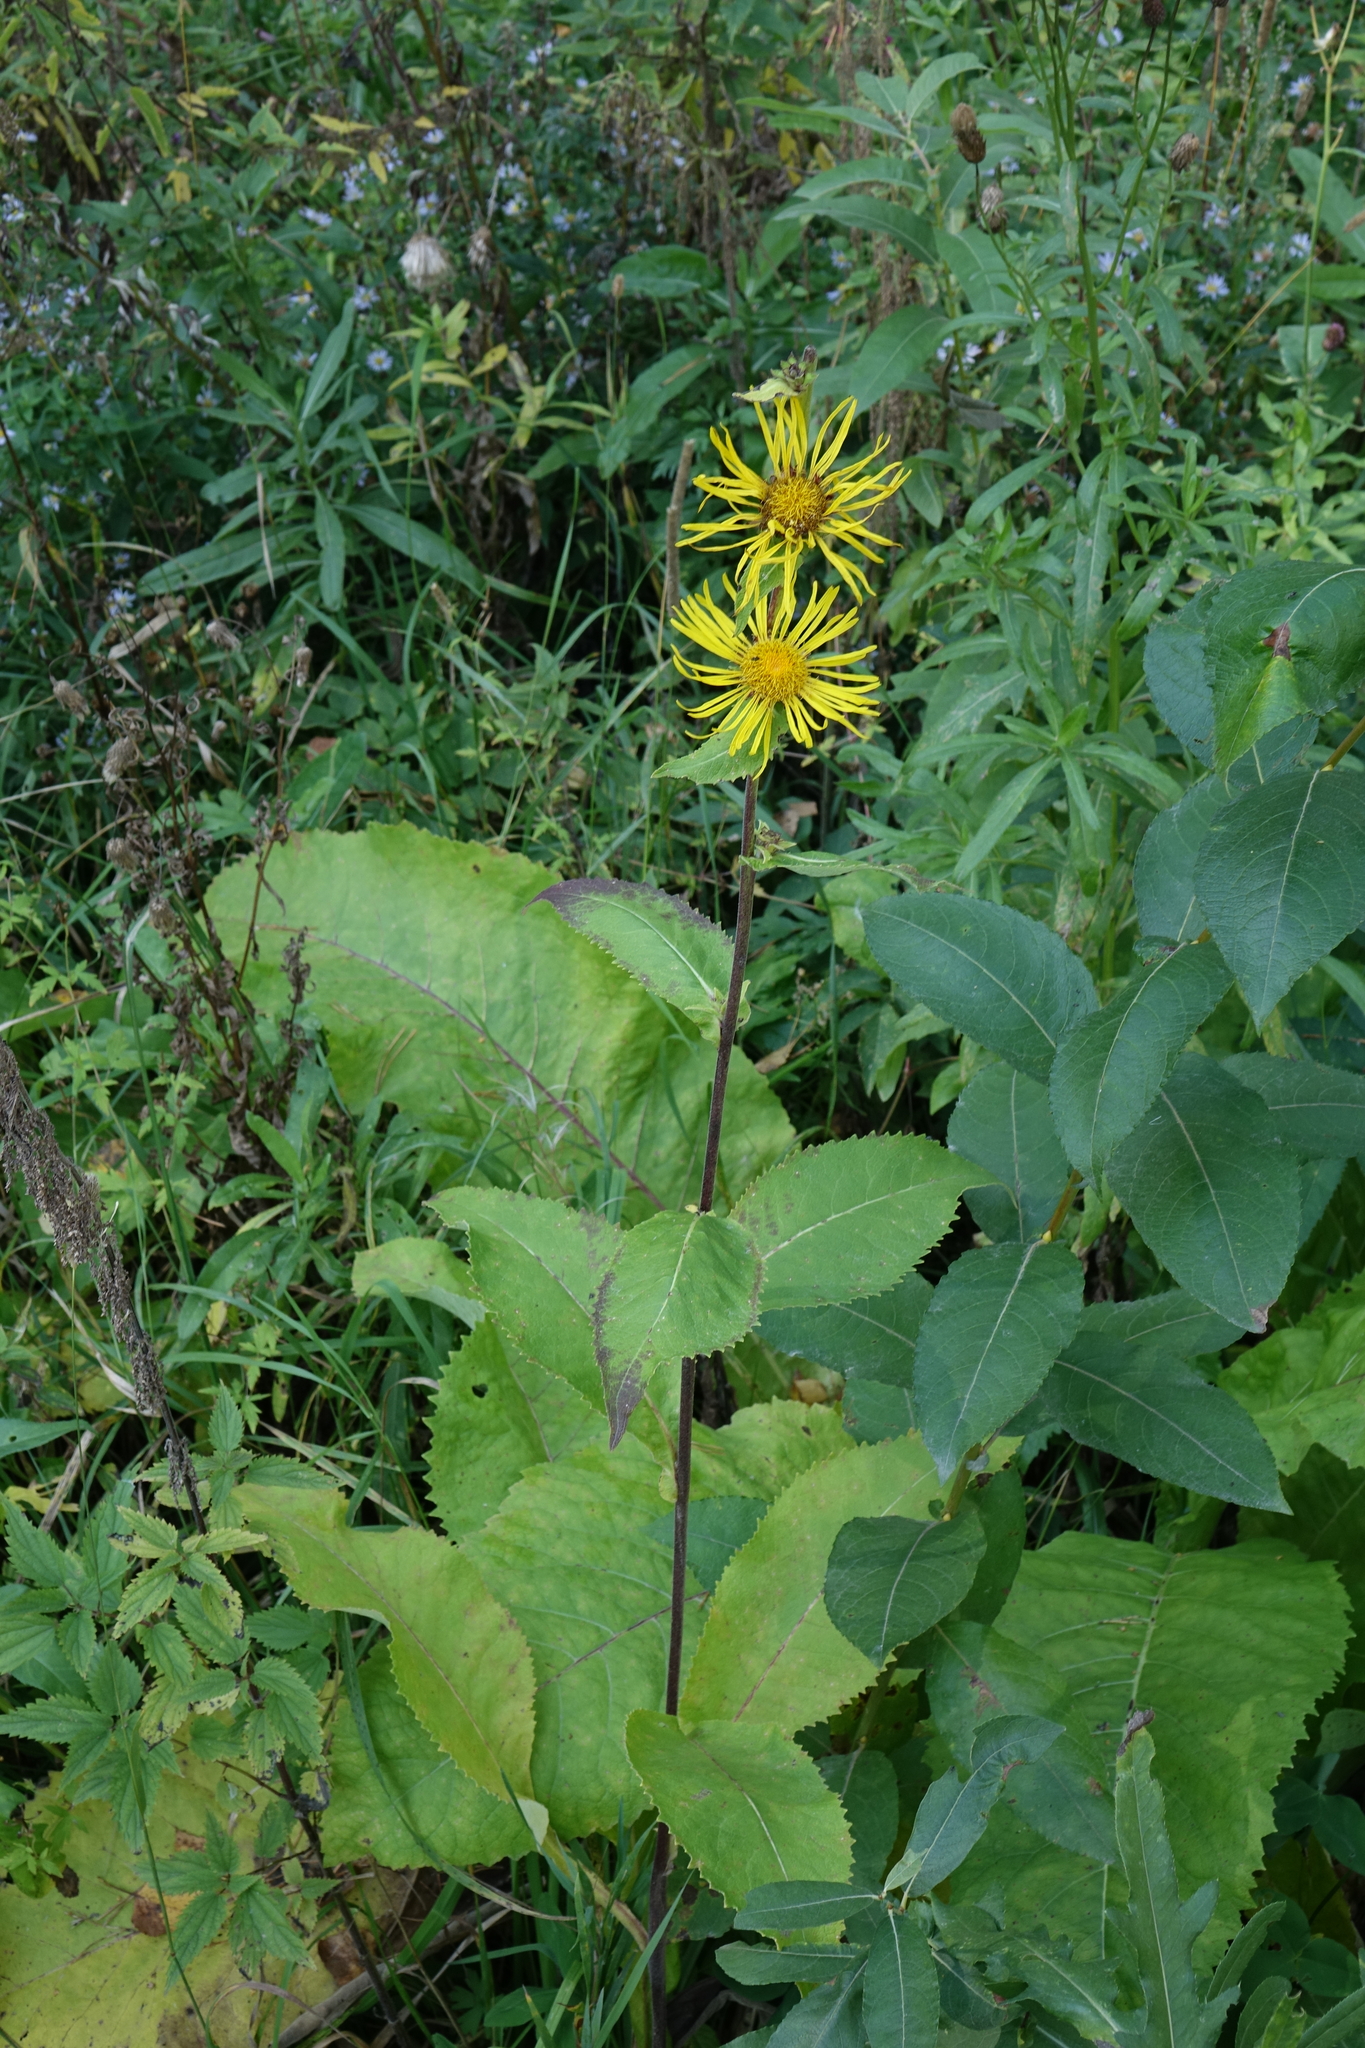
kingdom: Plantae
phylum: Tracheophyta
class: Magnoliopsida
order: Asterales
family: Asteraceae
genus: Inula
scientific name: Inula helenium
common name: Elecampane
